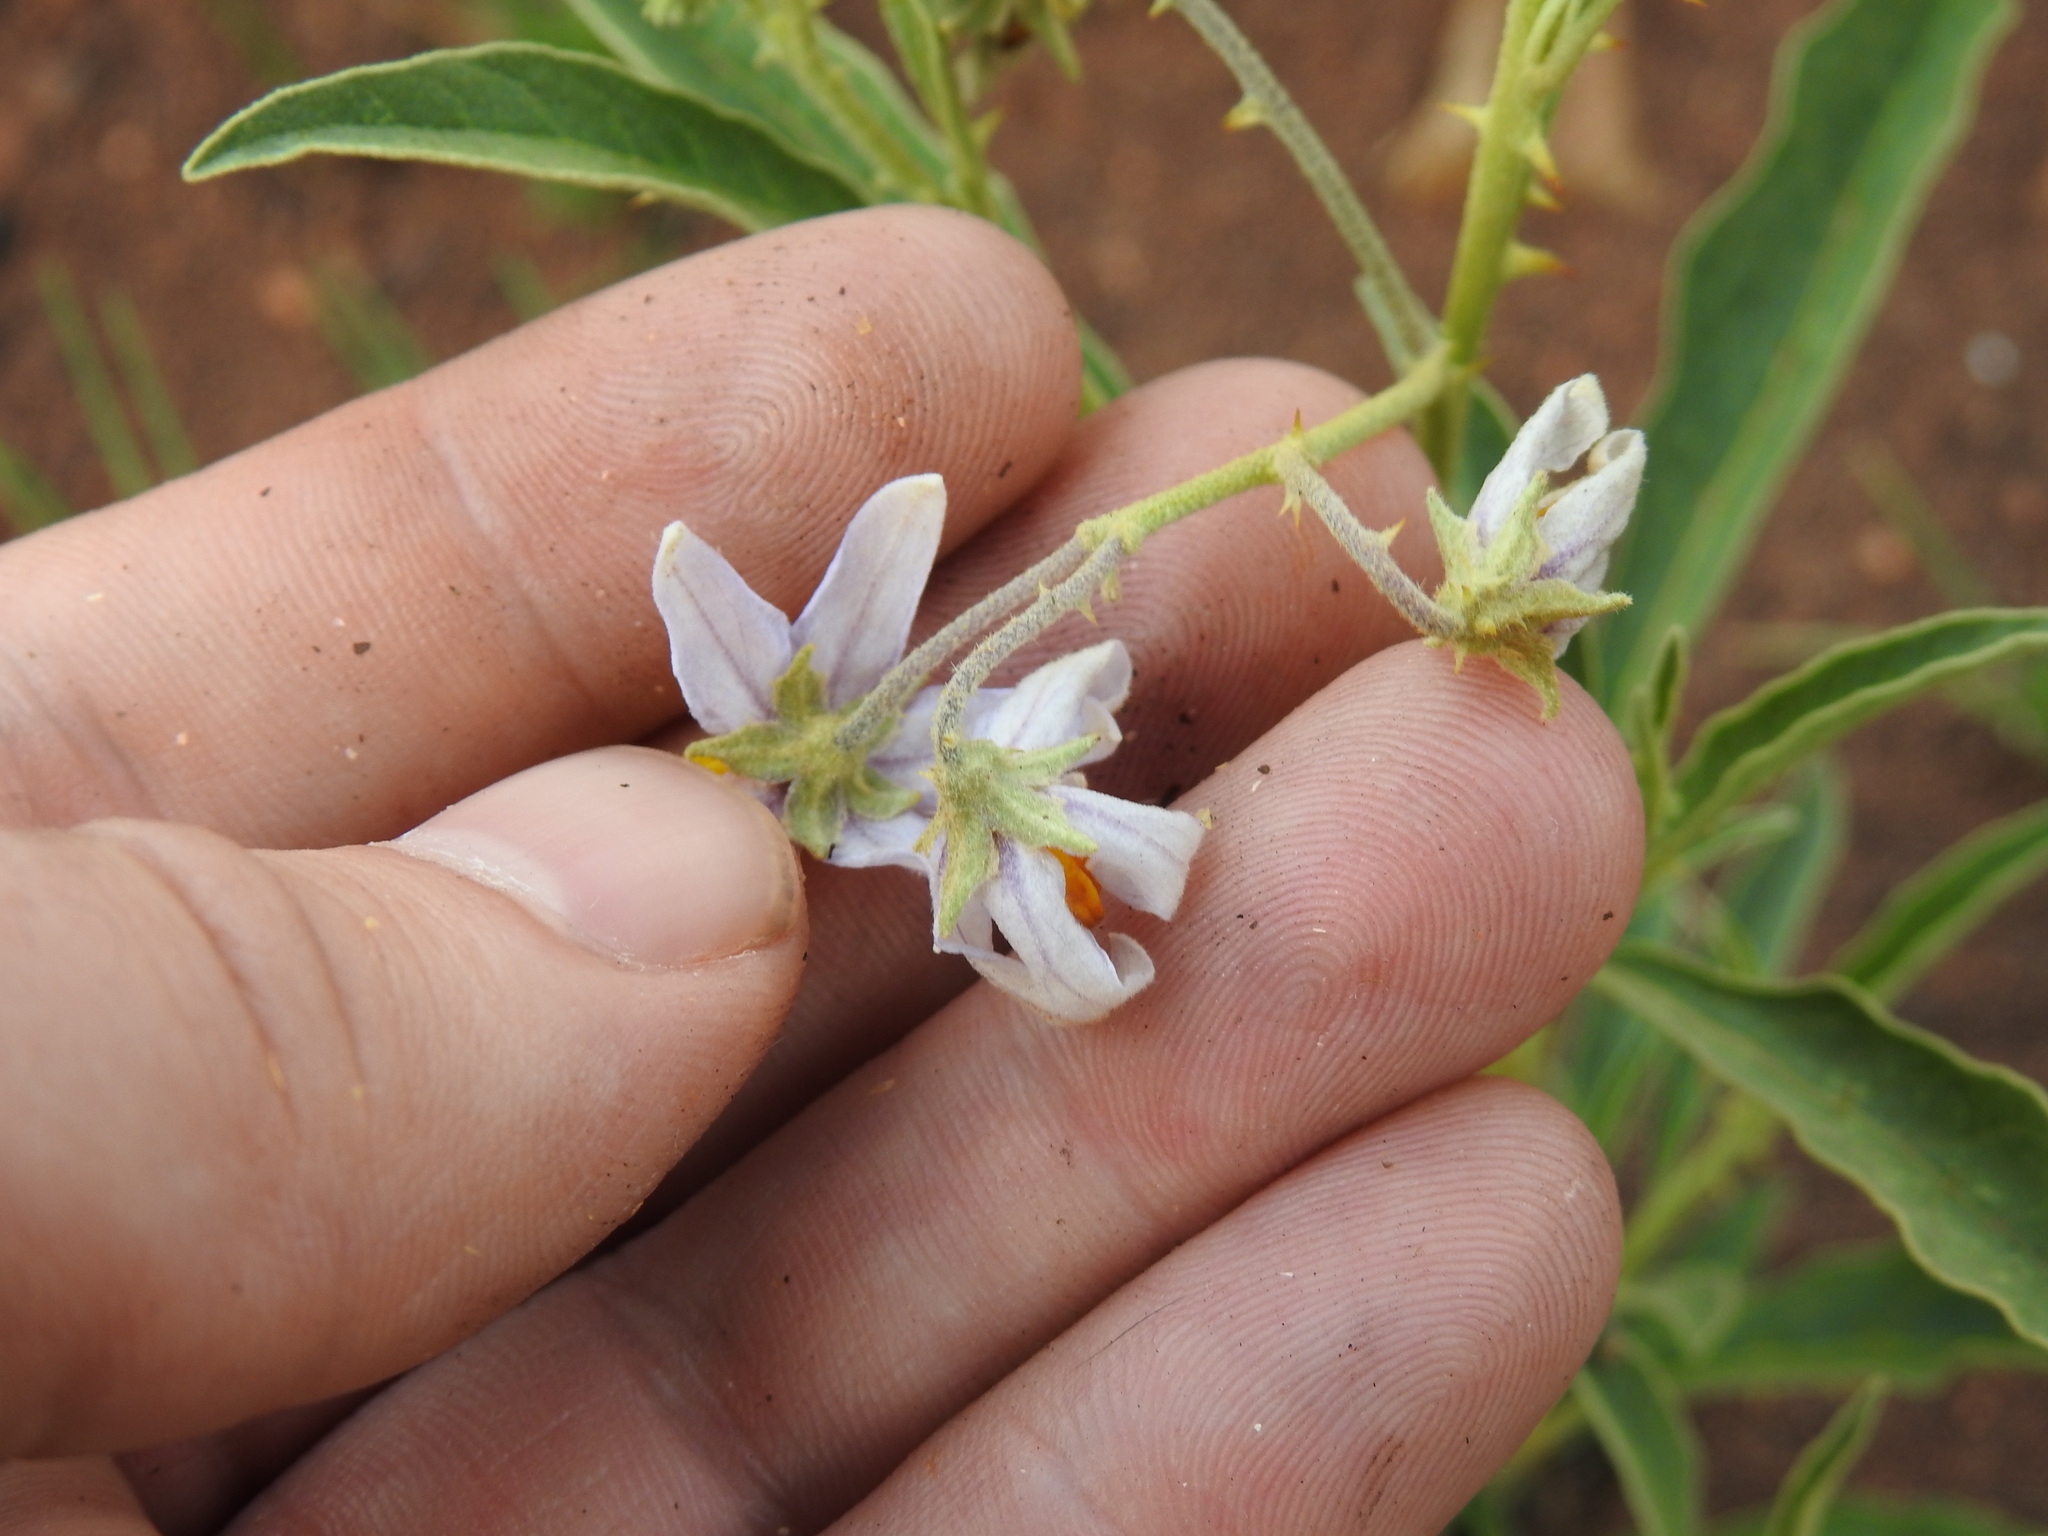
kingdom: Plantae
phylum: Tracheophyta
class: Magnoliopsida
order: Solanales
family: Solanaceae
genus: Solanum
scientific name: Solanum campylacanthum
